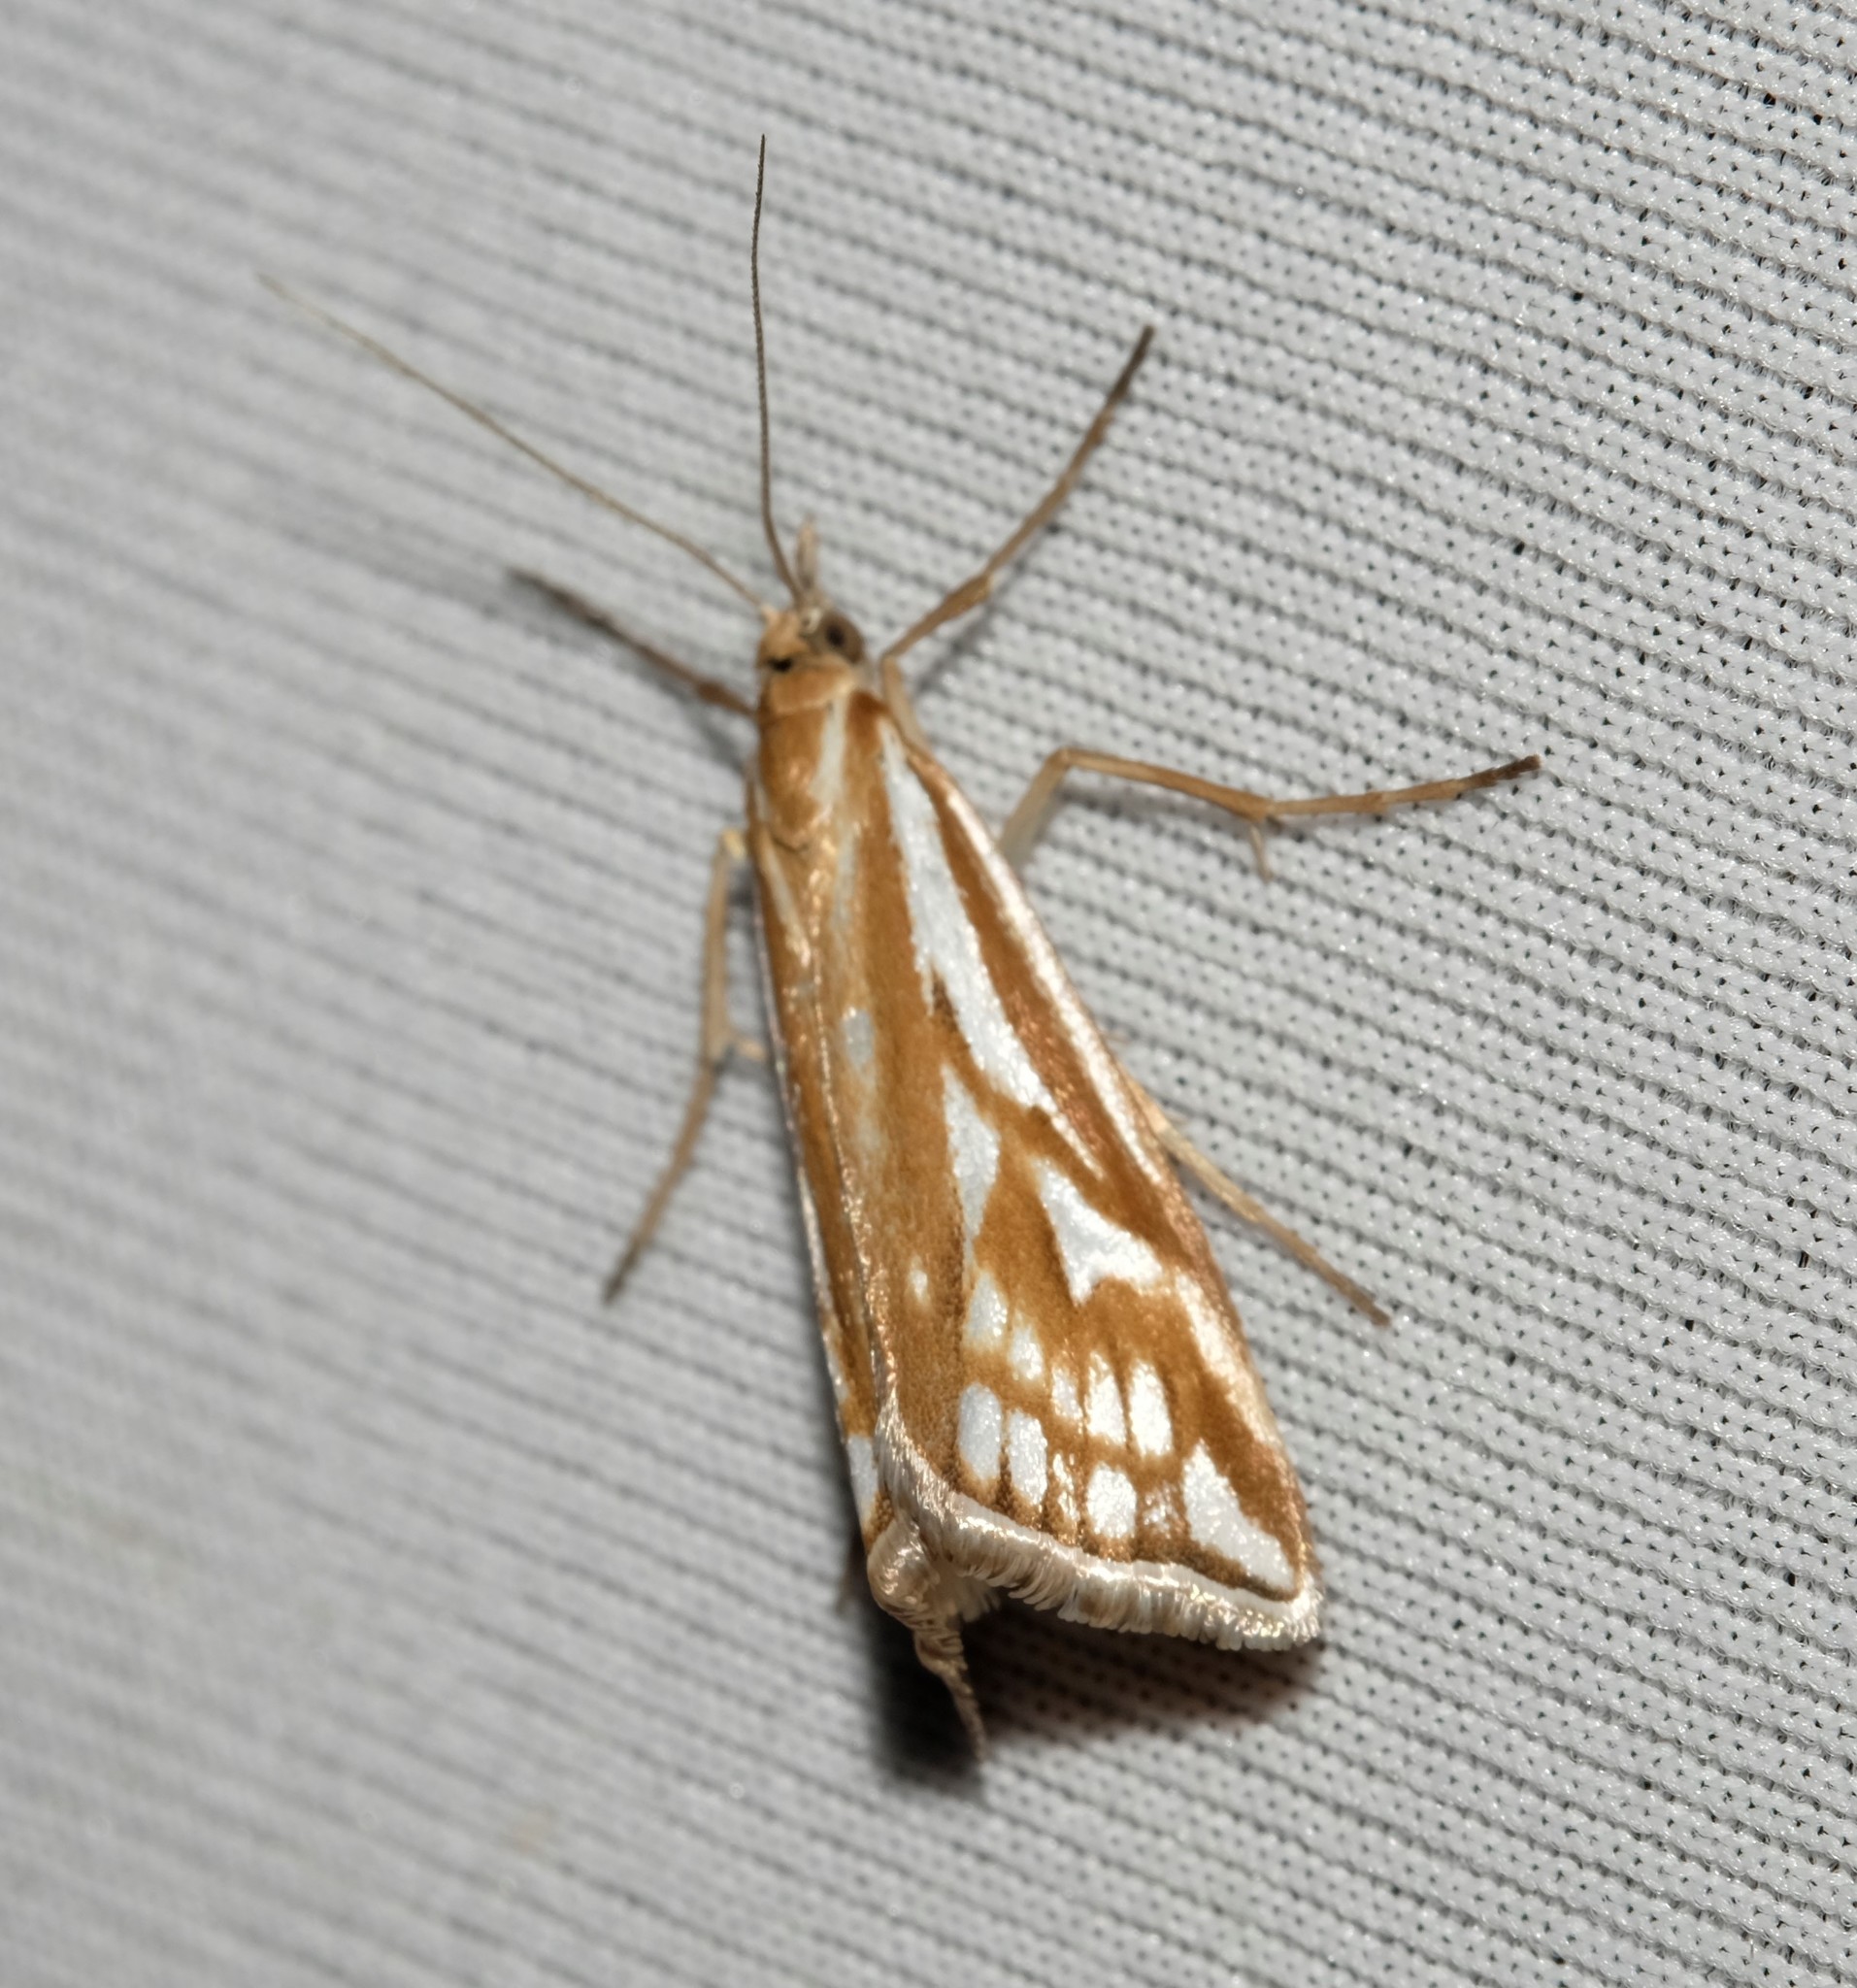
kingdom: Animalia
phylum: Arthropoda
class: Insecta
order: Lepidoptera
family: Crambidae
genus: Hednota
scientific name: Hednota pleniferellus
